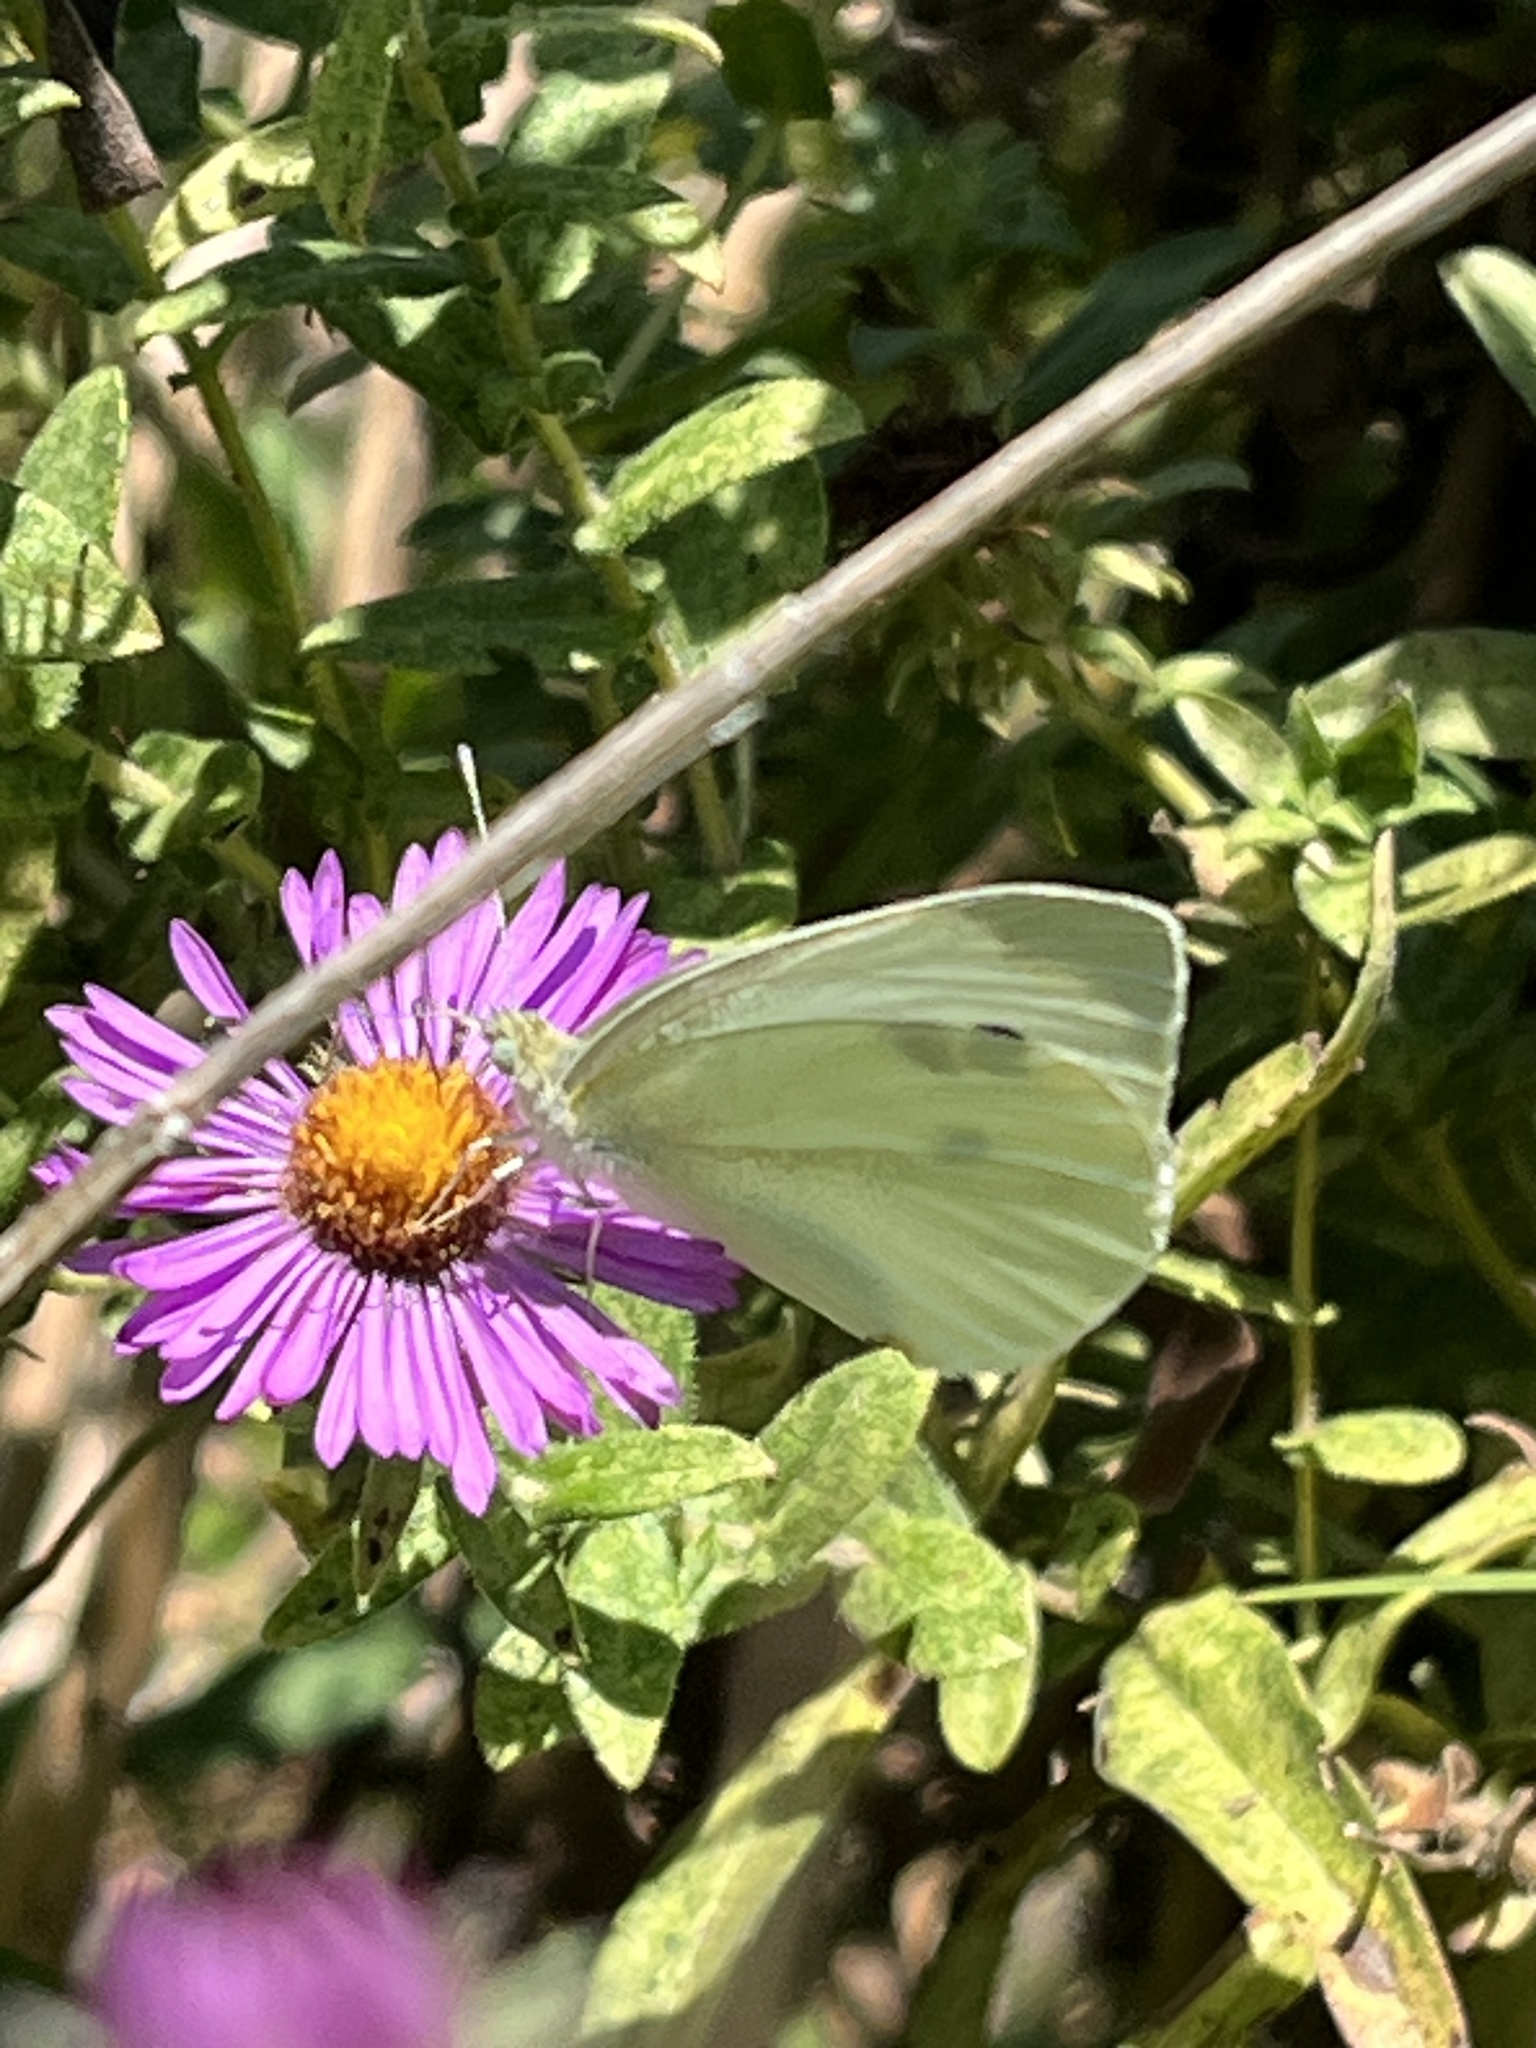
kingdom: Animalia
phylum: Arthropoda
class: Insecta
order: Lepidoptera
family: Pieridae
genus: Pieris
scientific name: Pieris rapae
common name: Small white
